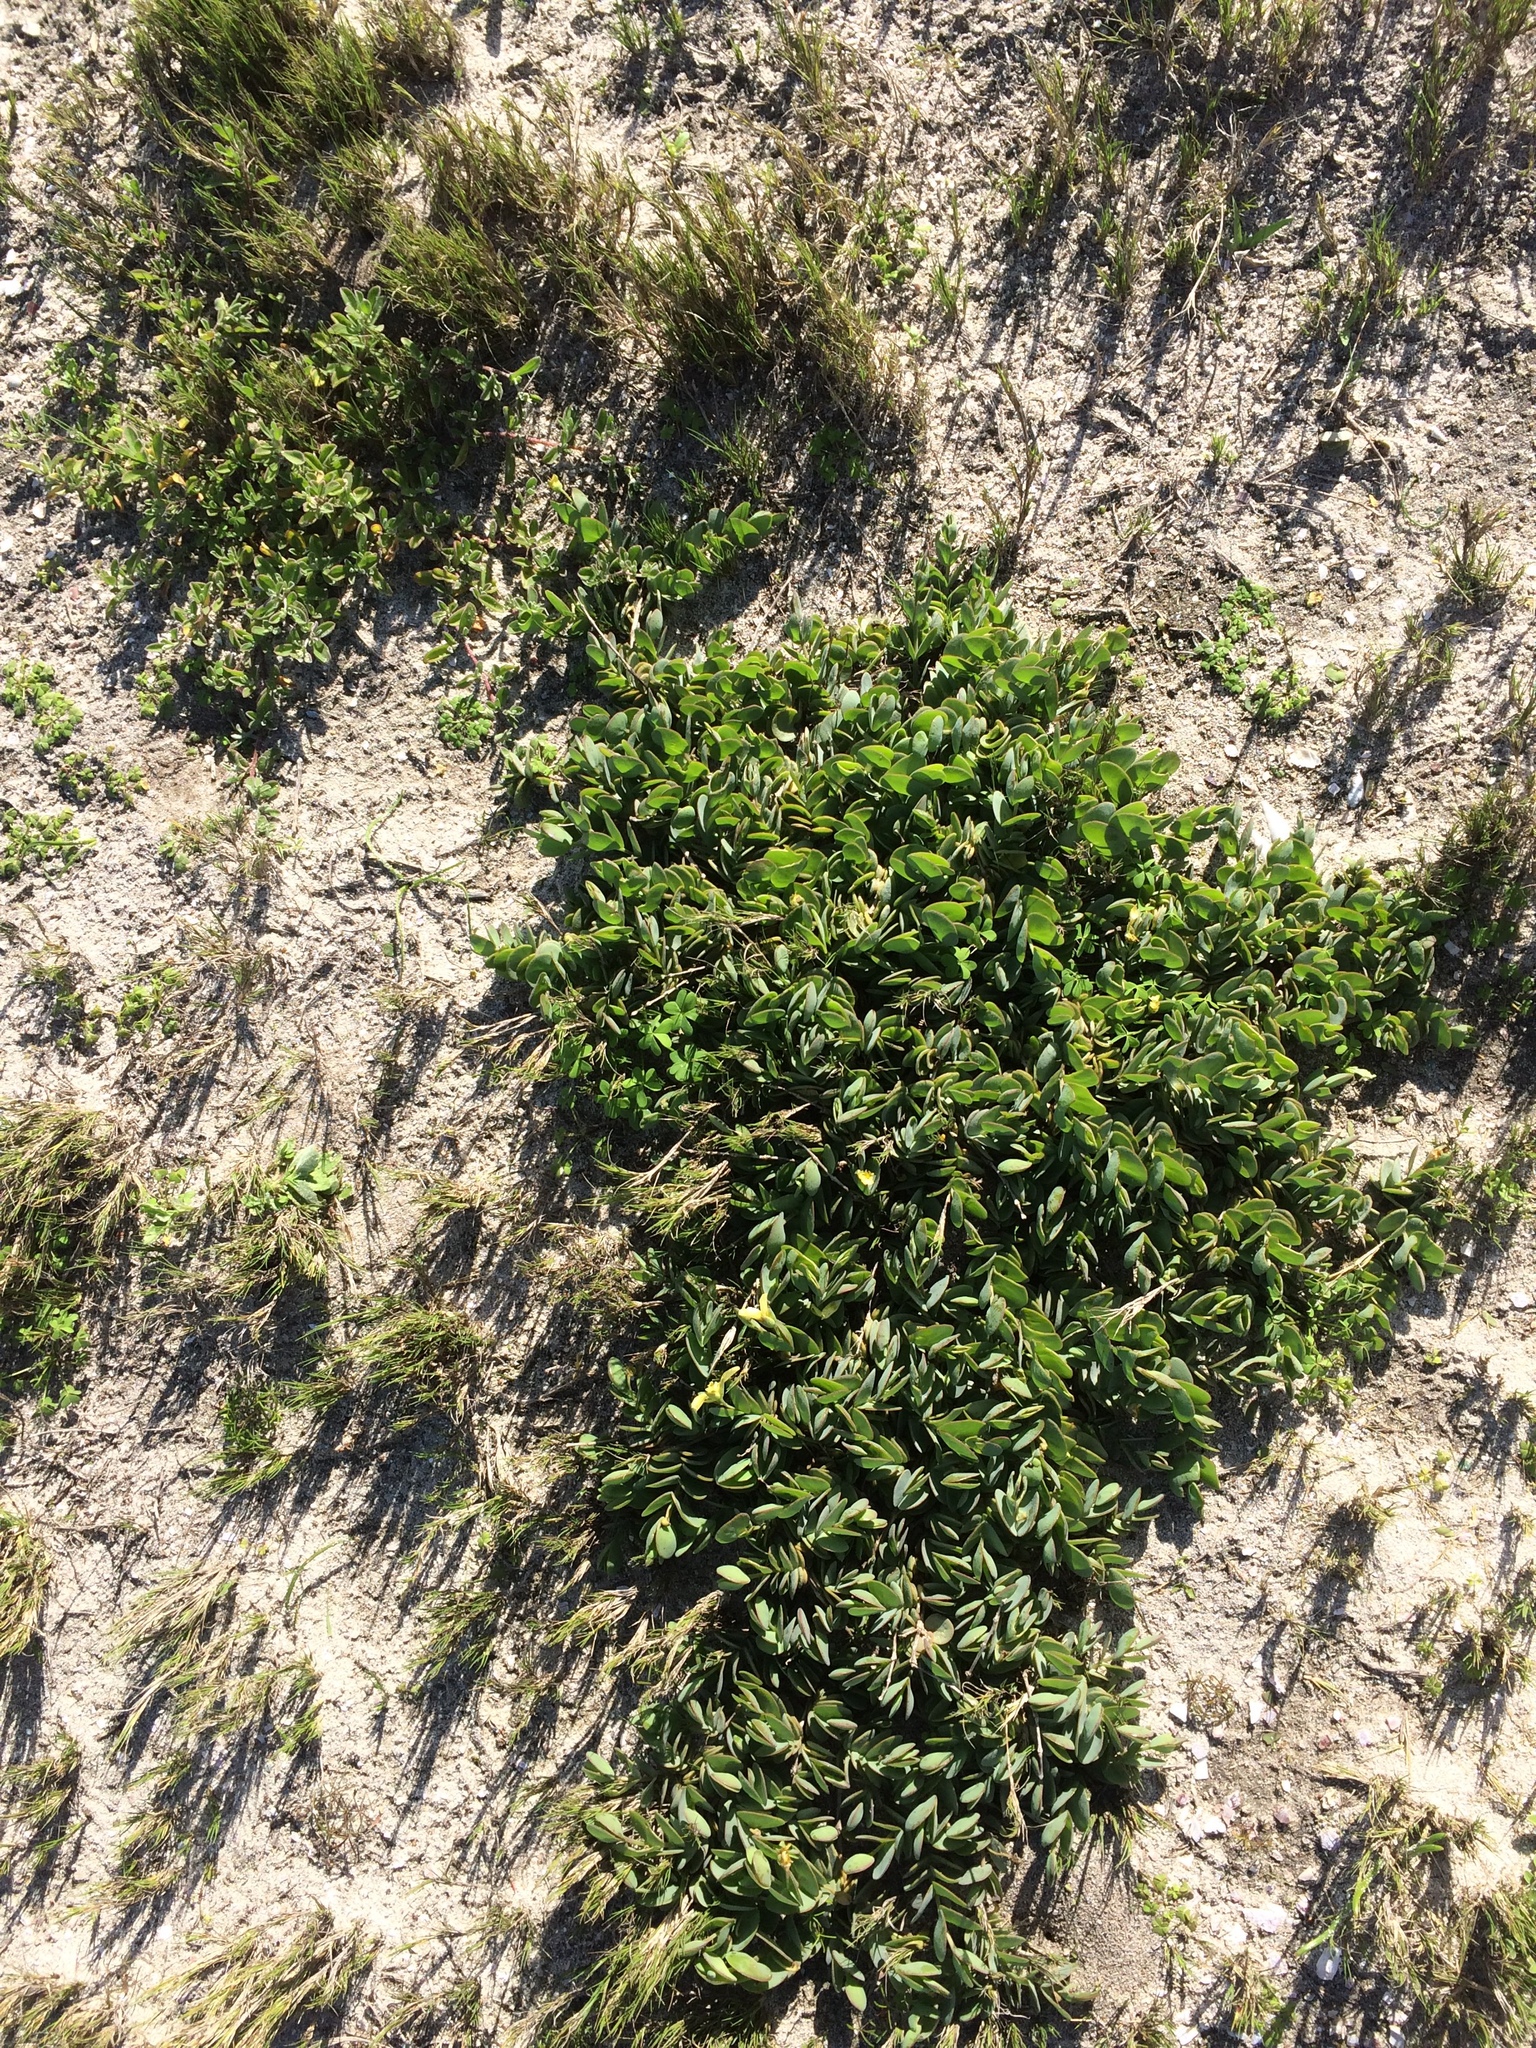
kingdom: Plantae
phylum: Tracheophyta
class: Magnoliopsida
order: Zygophyllales
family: Zygophyllaceae
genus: Roepera
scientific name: Roepera cordifolia
